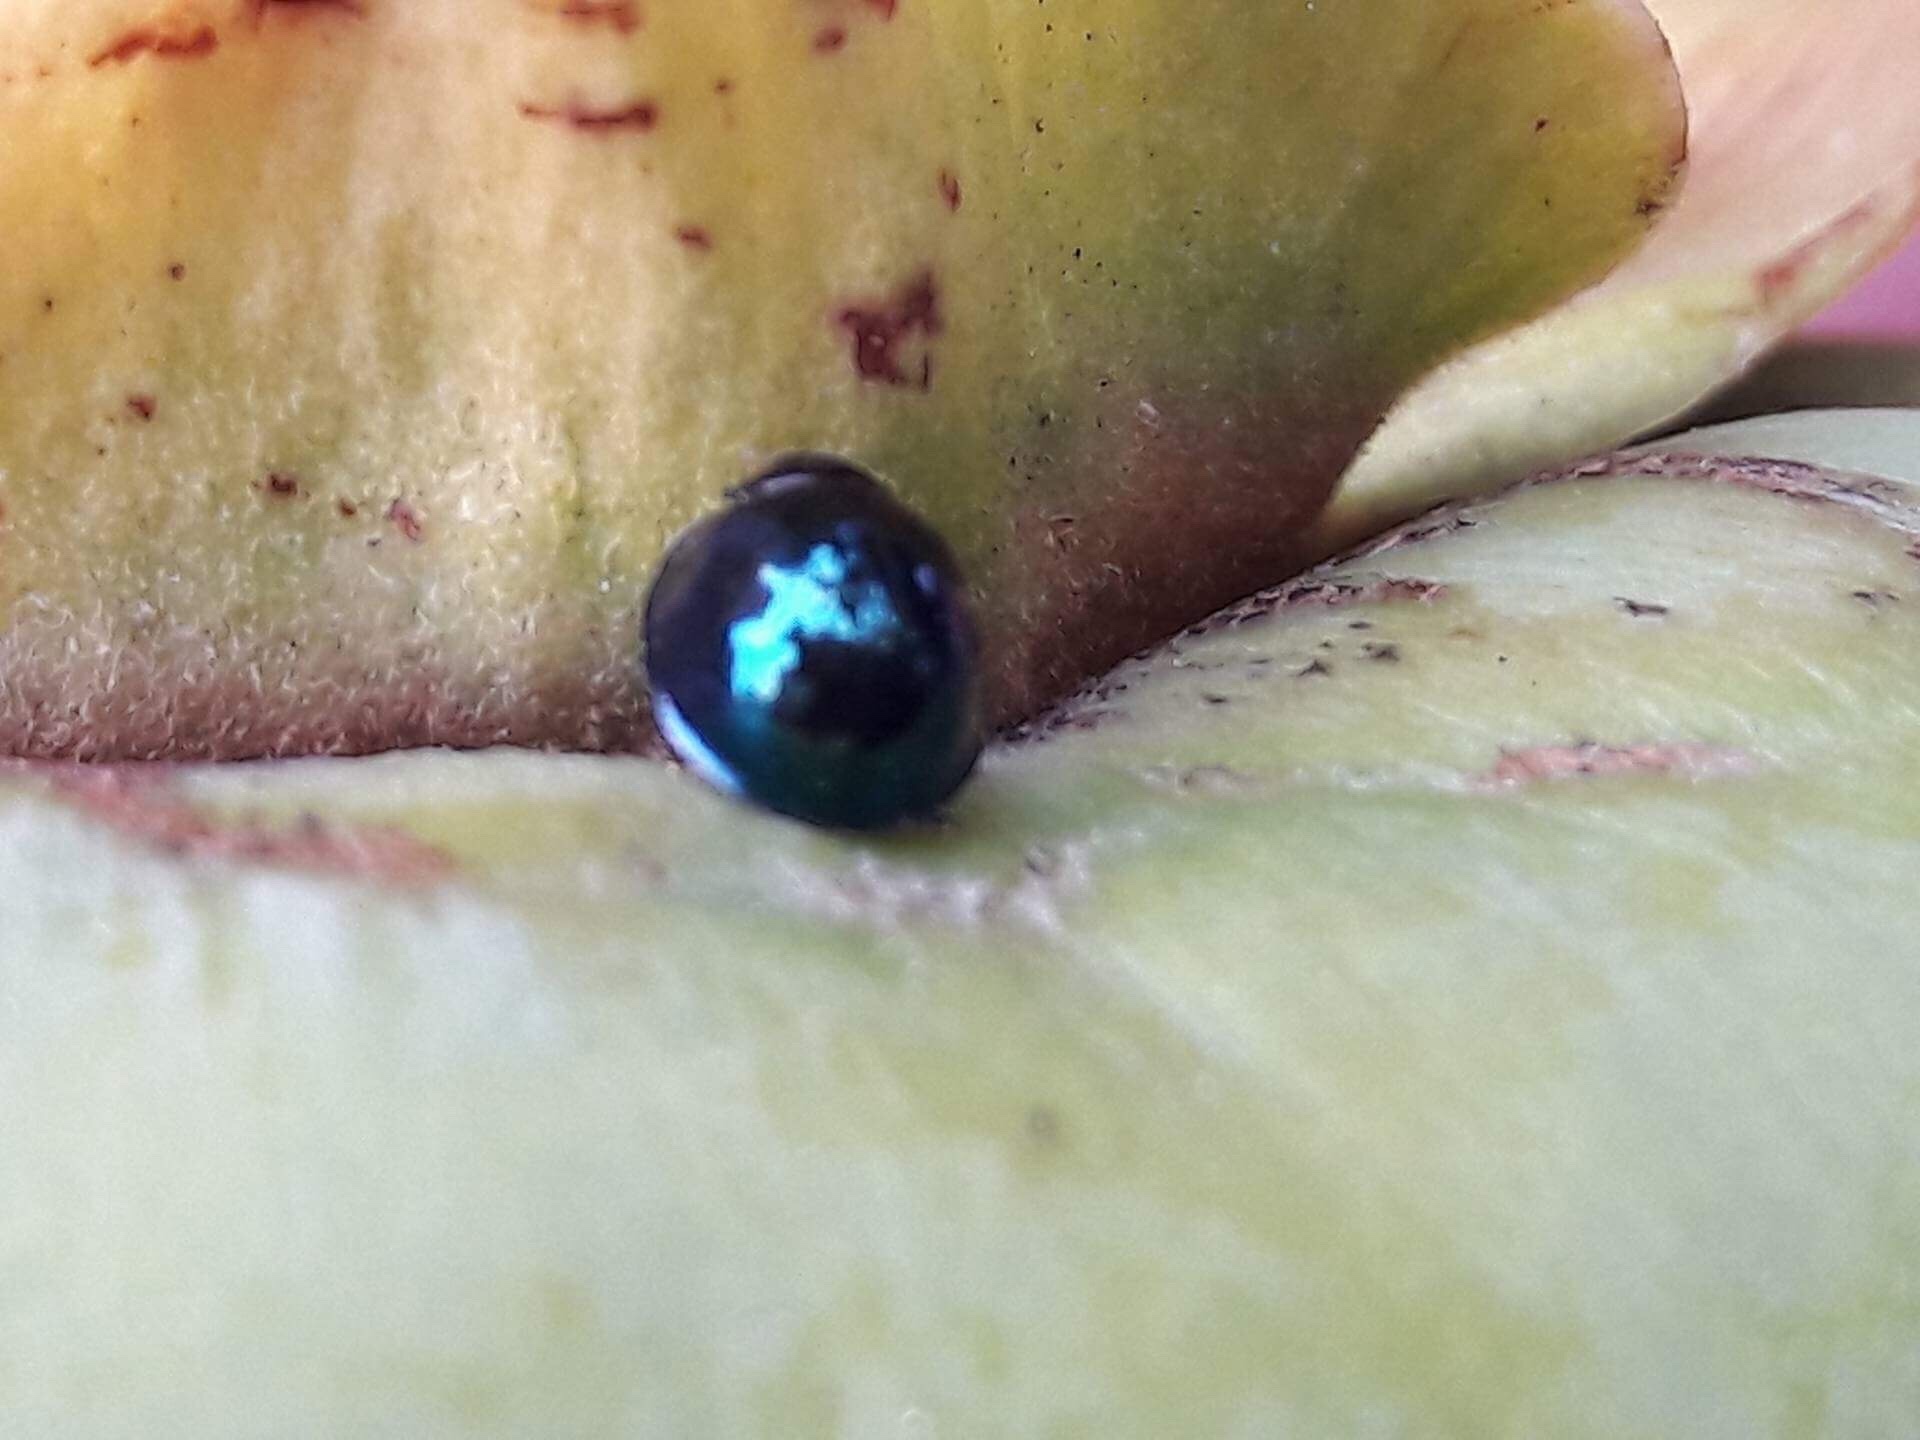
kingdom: Animalia
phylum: Arthropoda
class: Insecta
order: Coleoptera
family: Coccinellidae
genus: Halmus
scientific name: Halmus chalybeus
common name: Steel blue ladybird beetle
